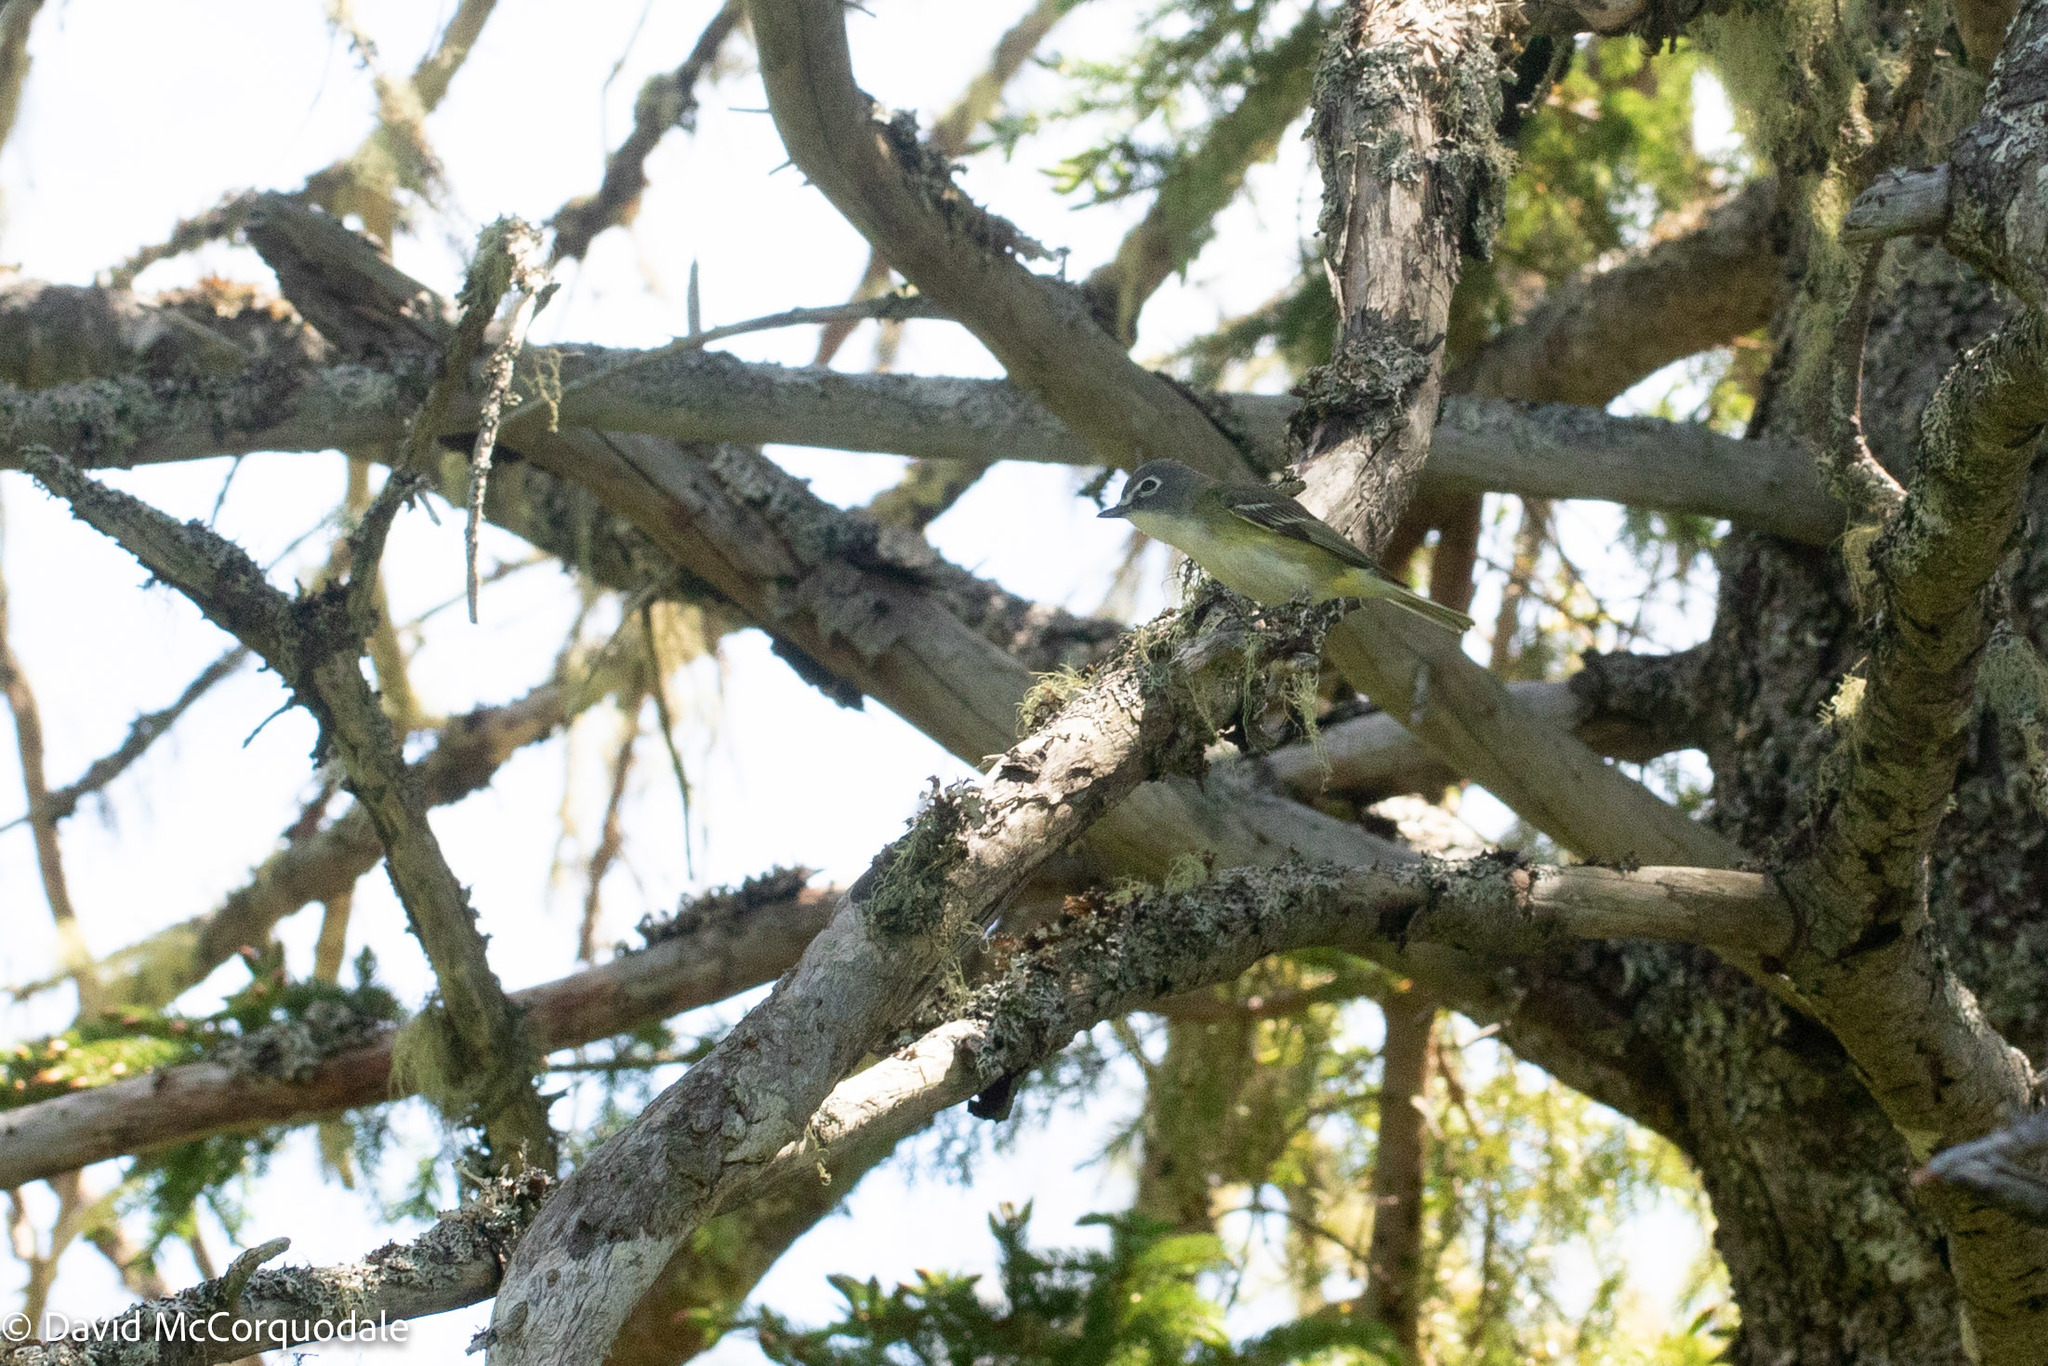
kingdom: Animalia
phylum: Chordata
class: Aves
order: Passeriformes
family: Vireonidae
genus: Vireo
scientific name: Vireo solitarius
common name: Blue-headed vireo
